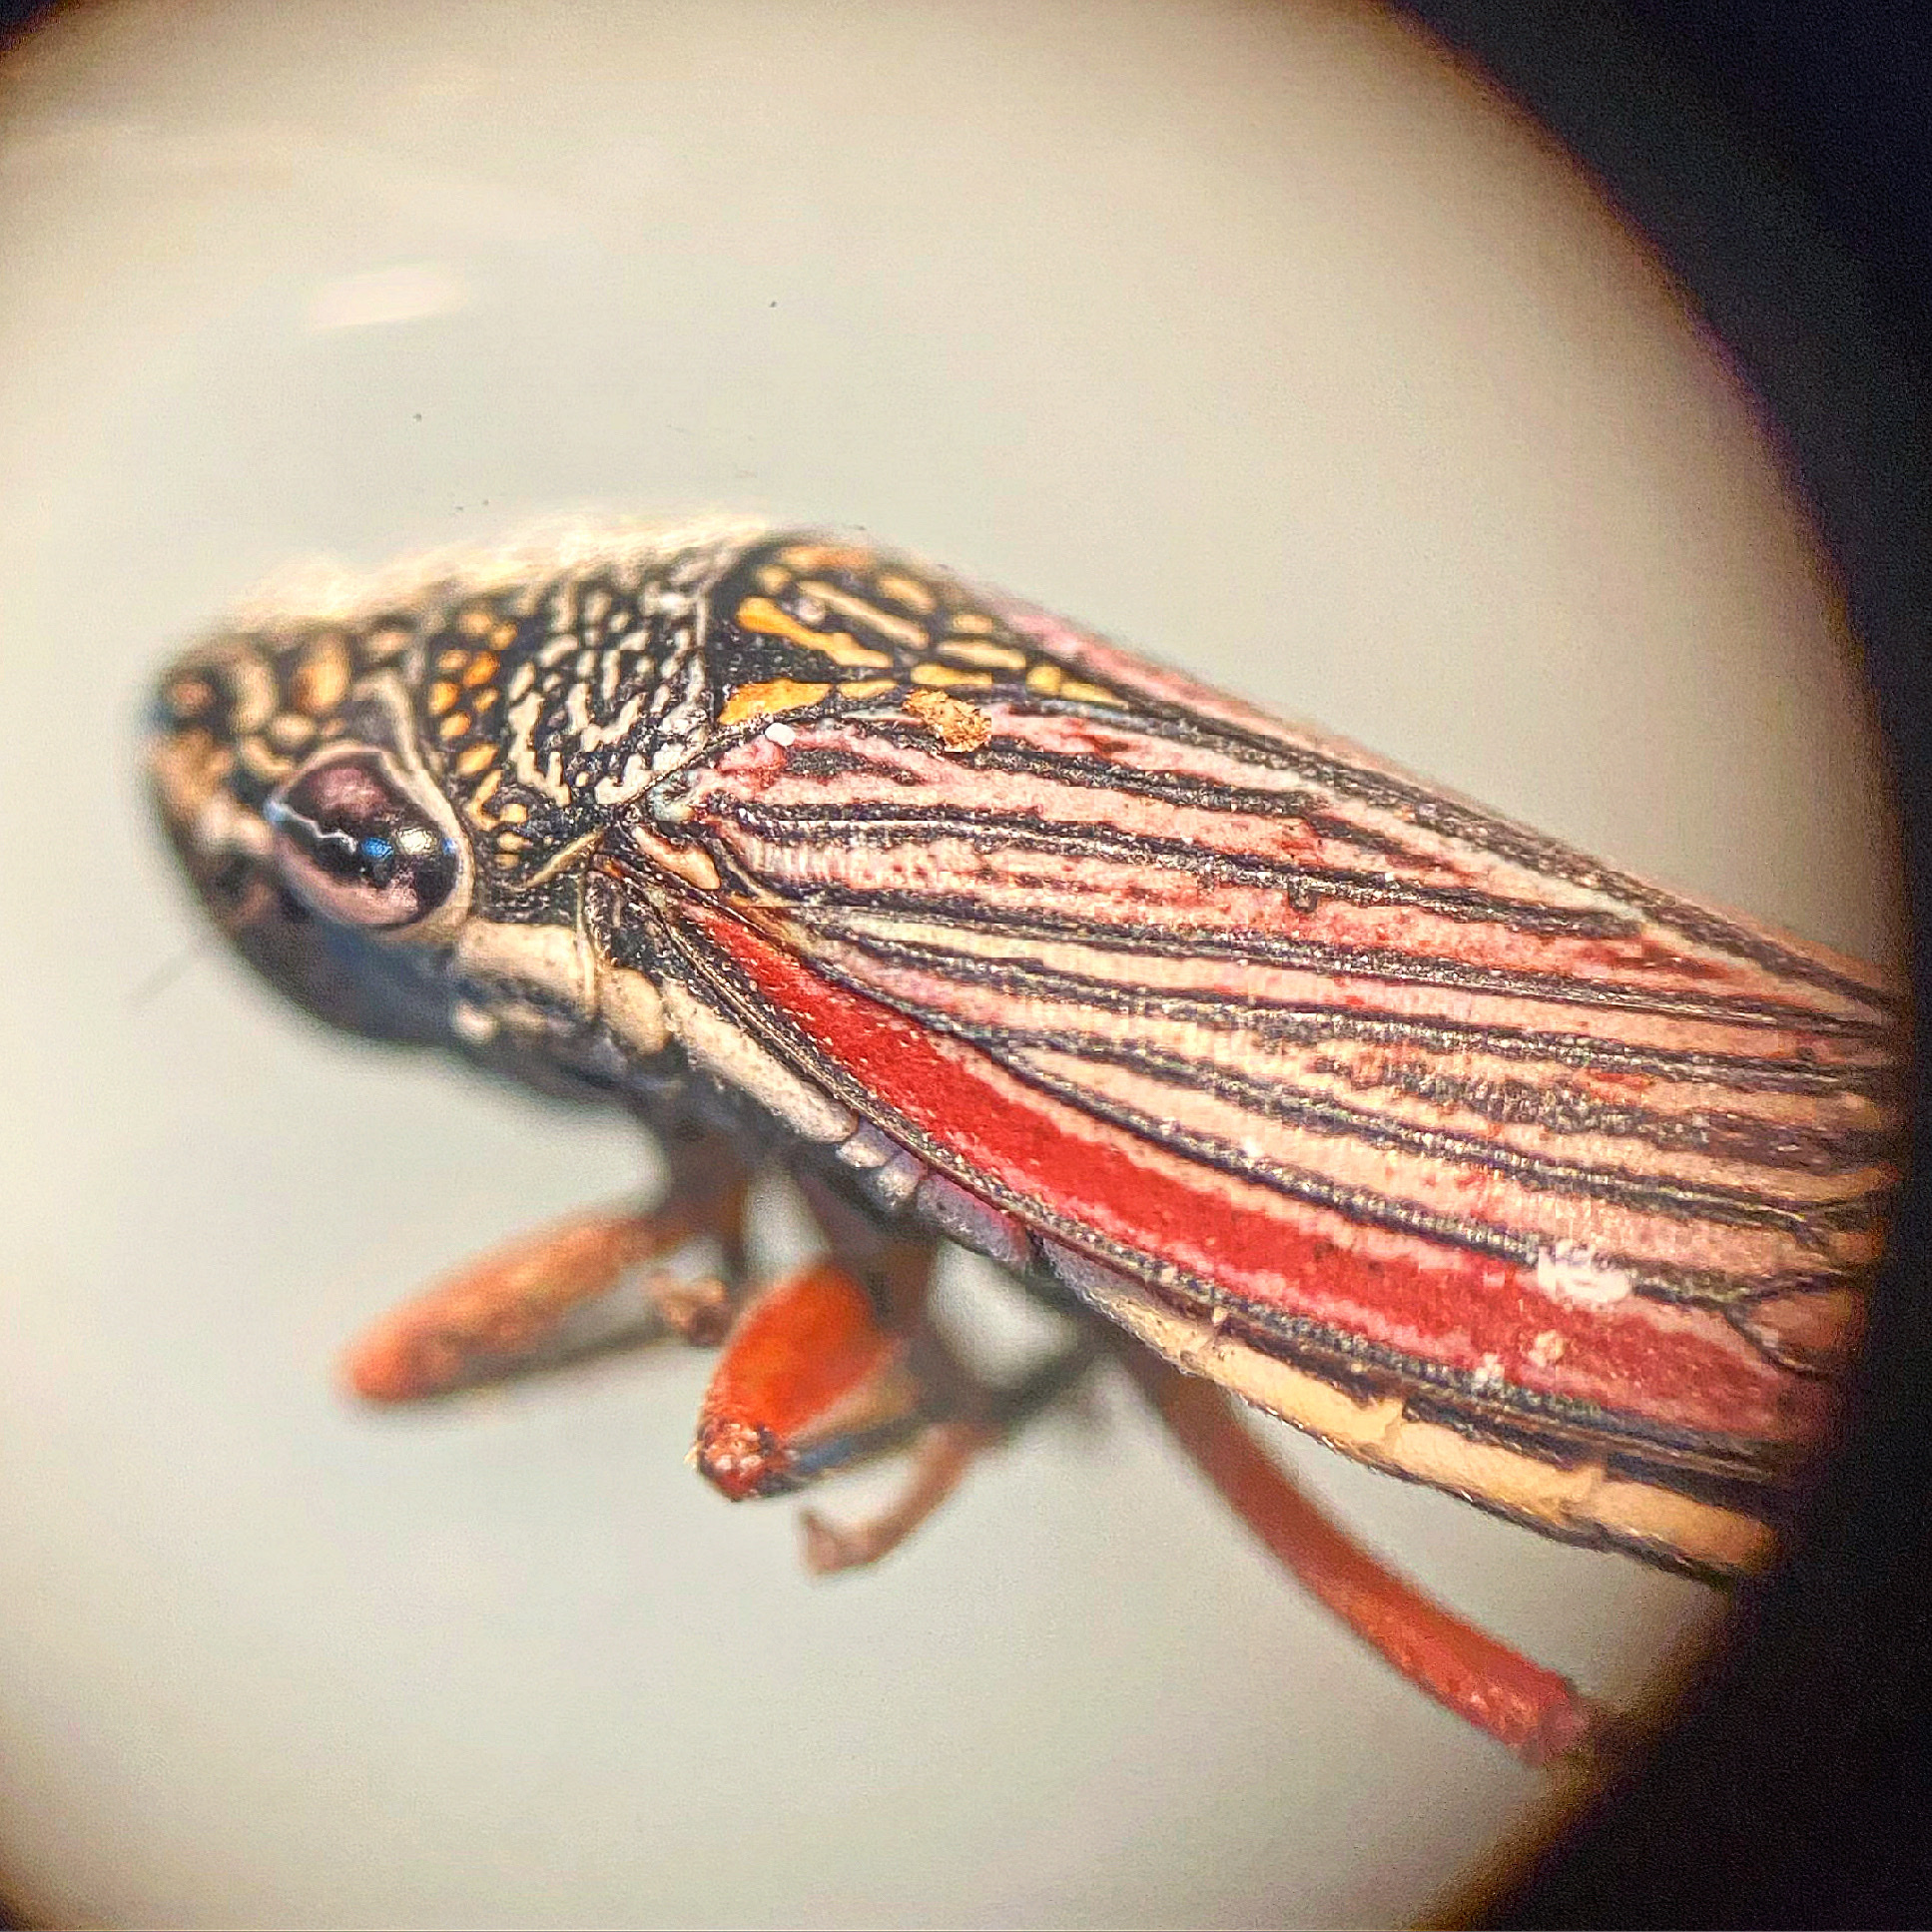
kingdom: Animalia
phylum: Arthropoda
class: Insecta
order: Hemiptera
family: Cicadellidae
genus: Cuerna
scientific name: Cuerna costalis
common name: Lateral-lined sharpshooter
